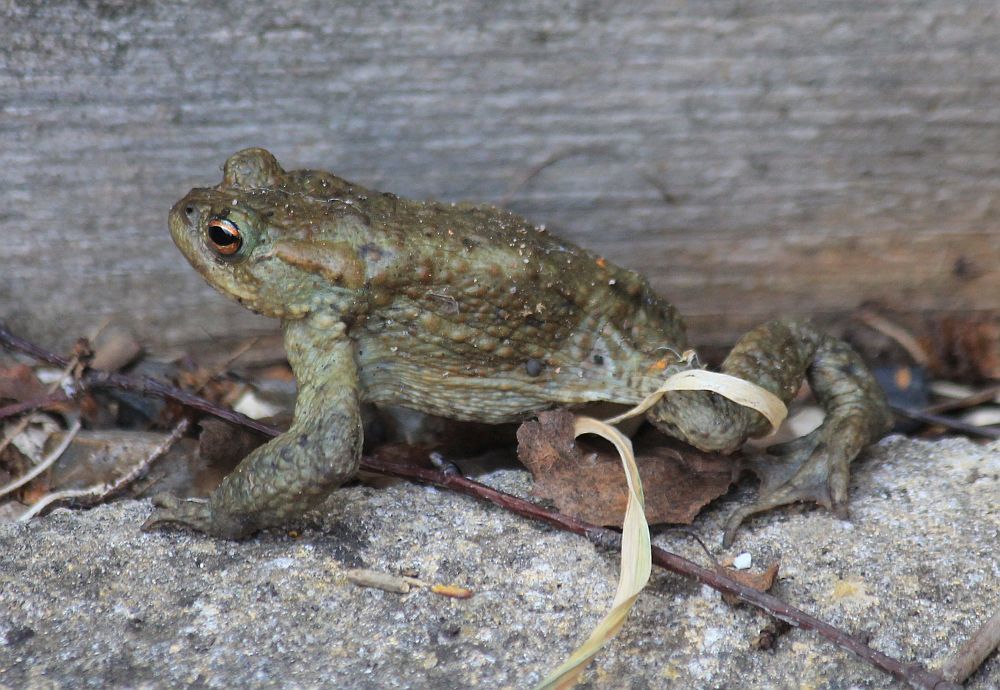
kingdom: Animalia
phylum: Chordata
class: Amphibia
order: Anura
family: Bufonidae
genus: Bufo
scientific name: Bufo bufo
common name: Common toad
